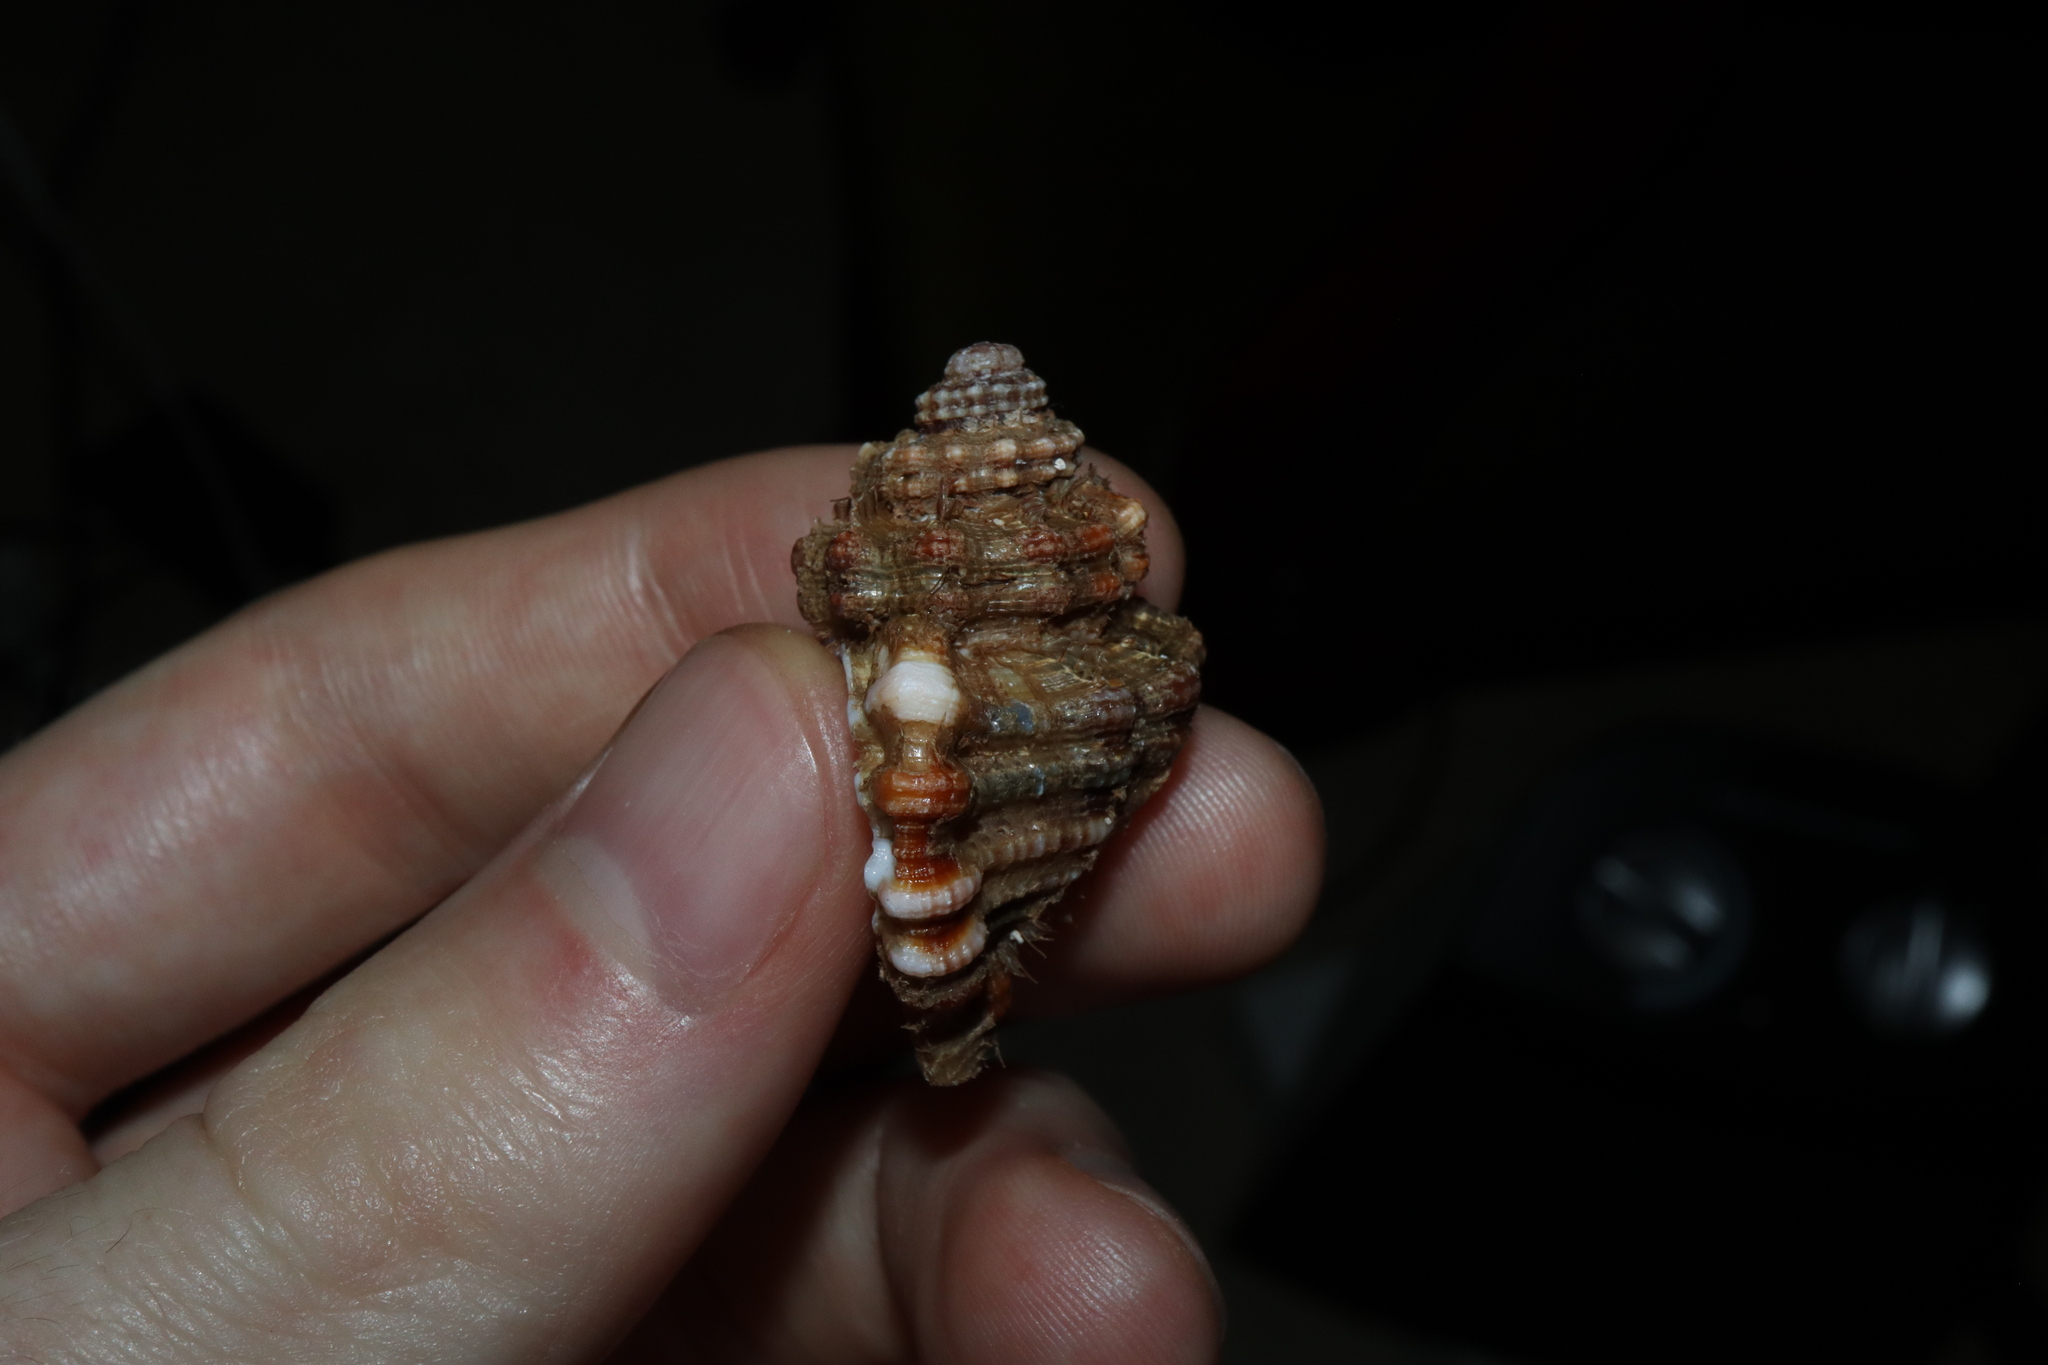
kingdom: Animalia
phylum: Mollusca
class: Gastropoda
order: Littorinimorpha
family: Cymatiidae
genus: Monoplex
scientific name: Monoplex exaratus
